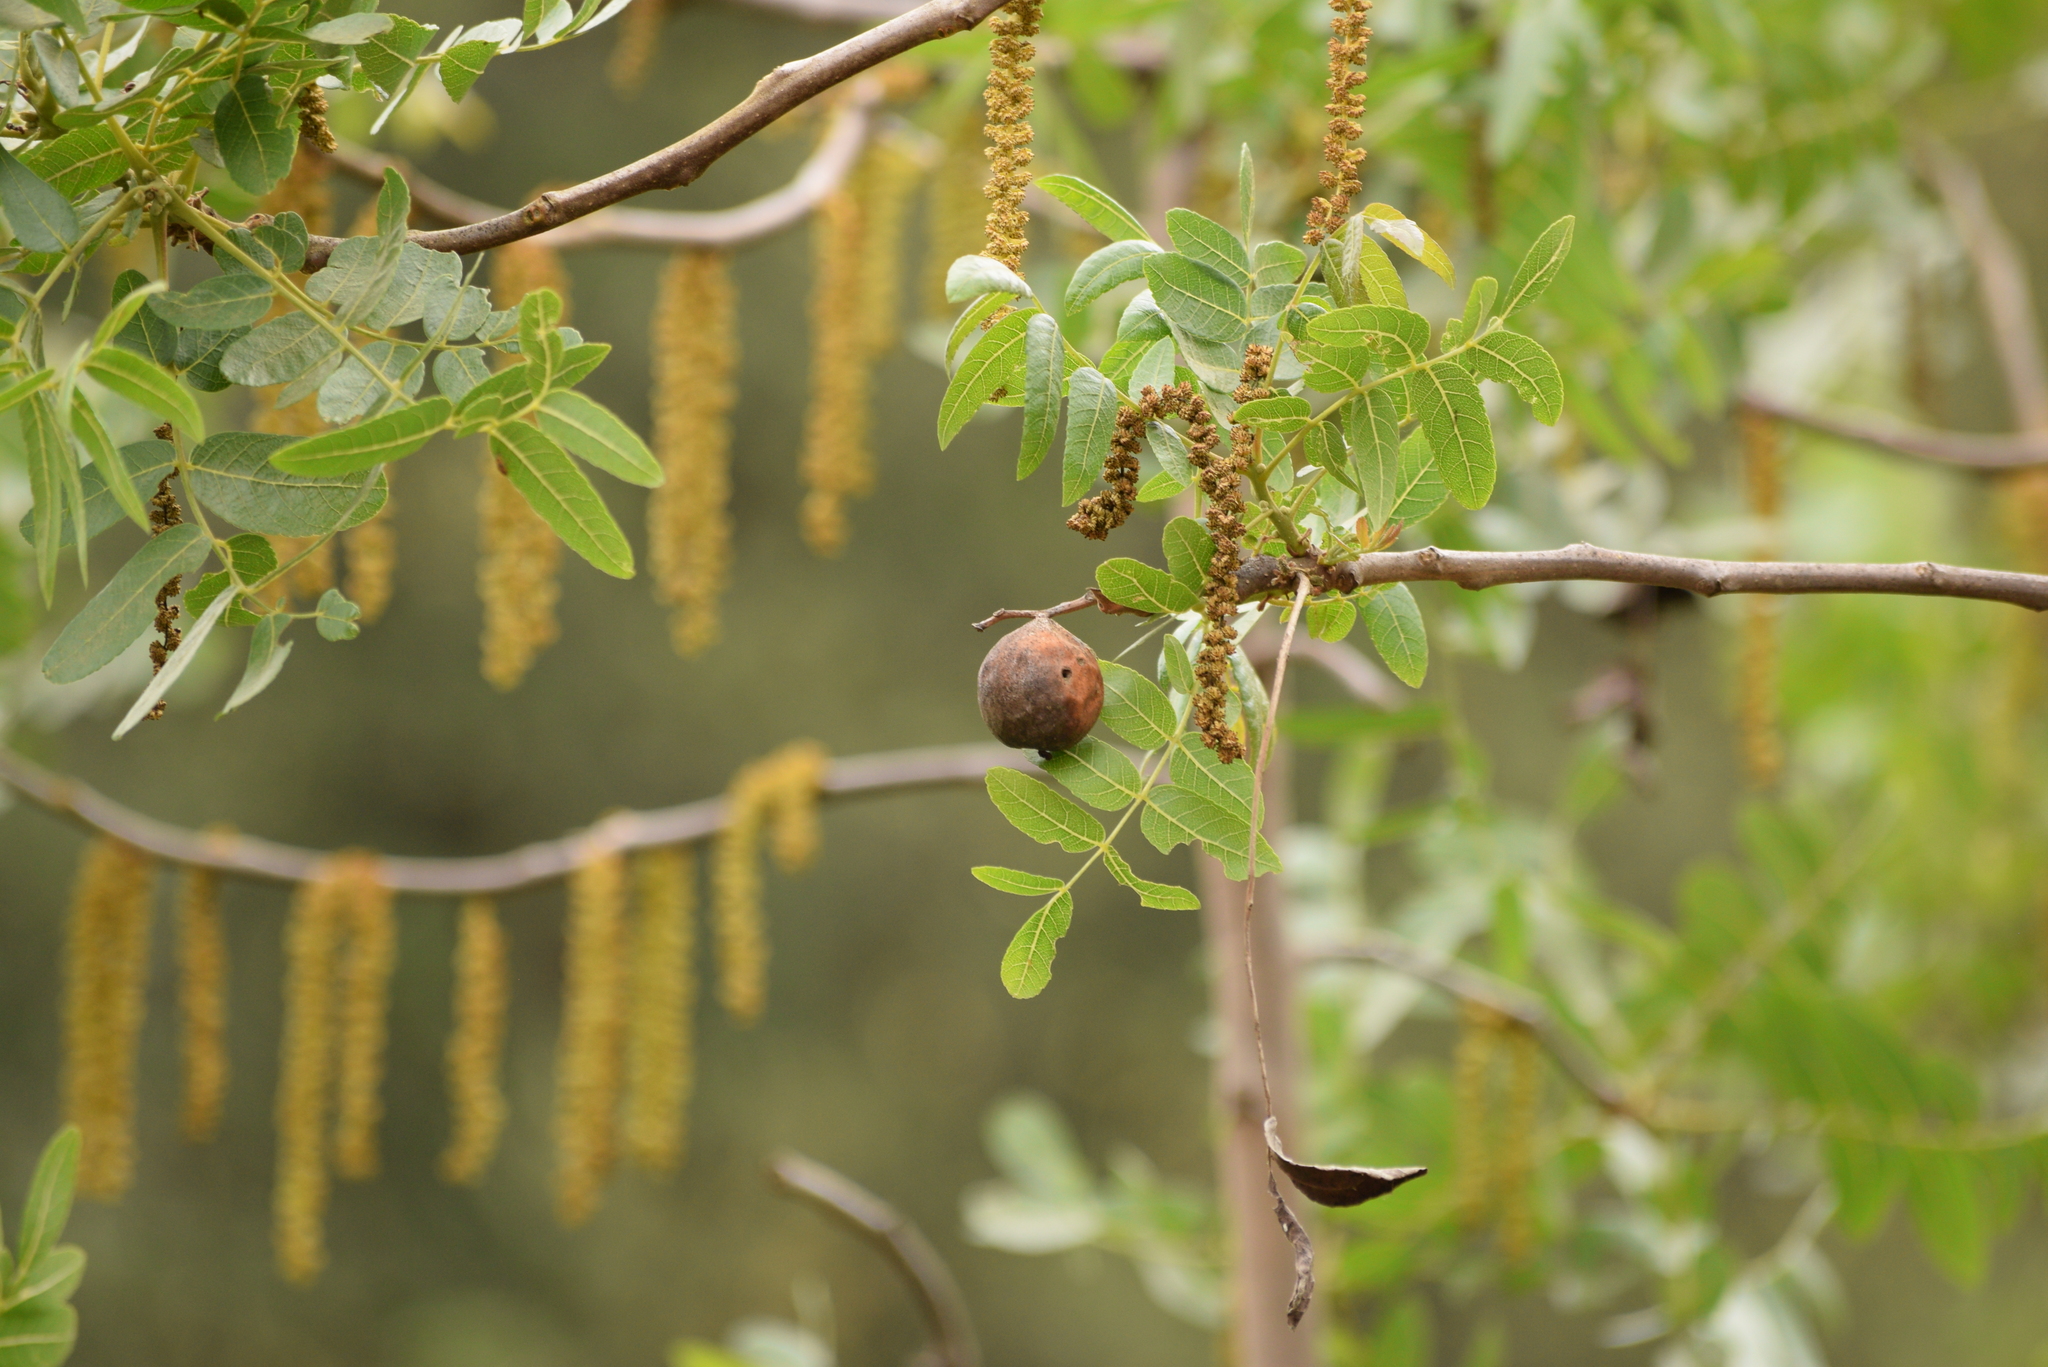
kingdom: Plantae
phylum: Tracheophyta
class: Magnoliopsida
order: Fagales
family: Juglandaceae
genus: Juglans
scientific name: Juglans californica
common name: Southern california black walnut
